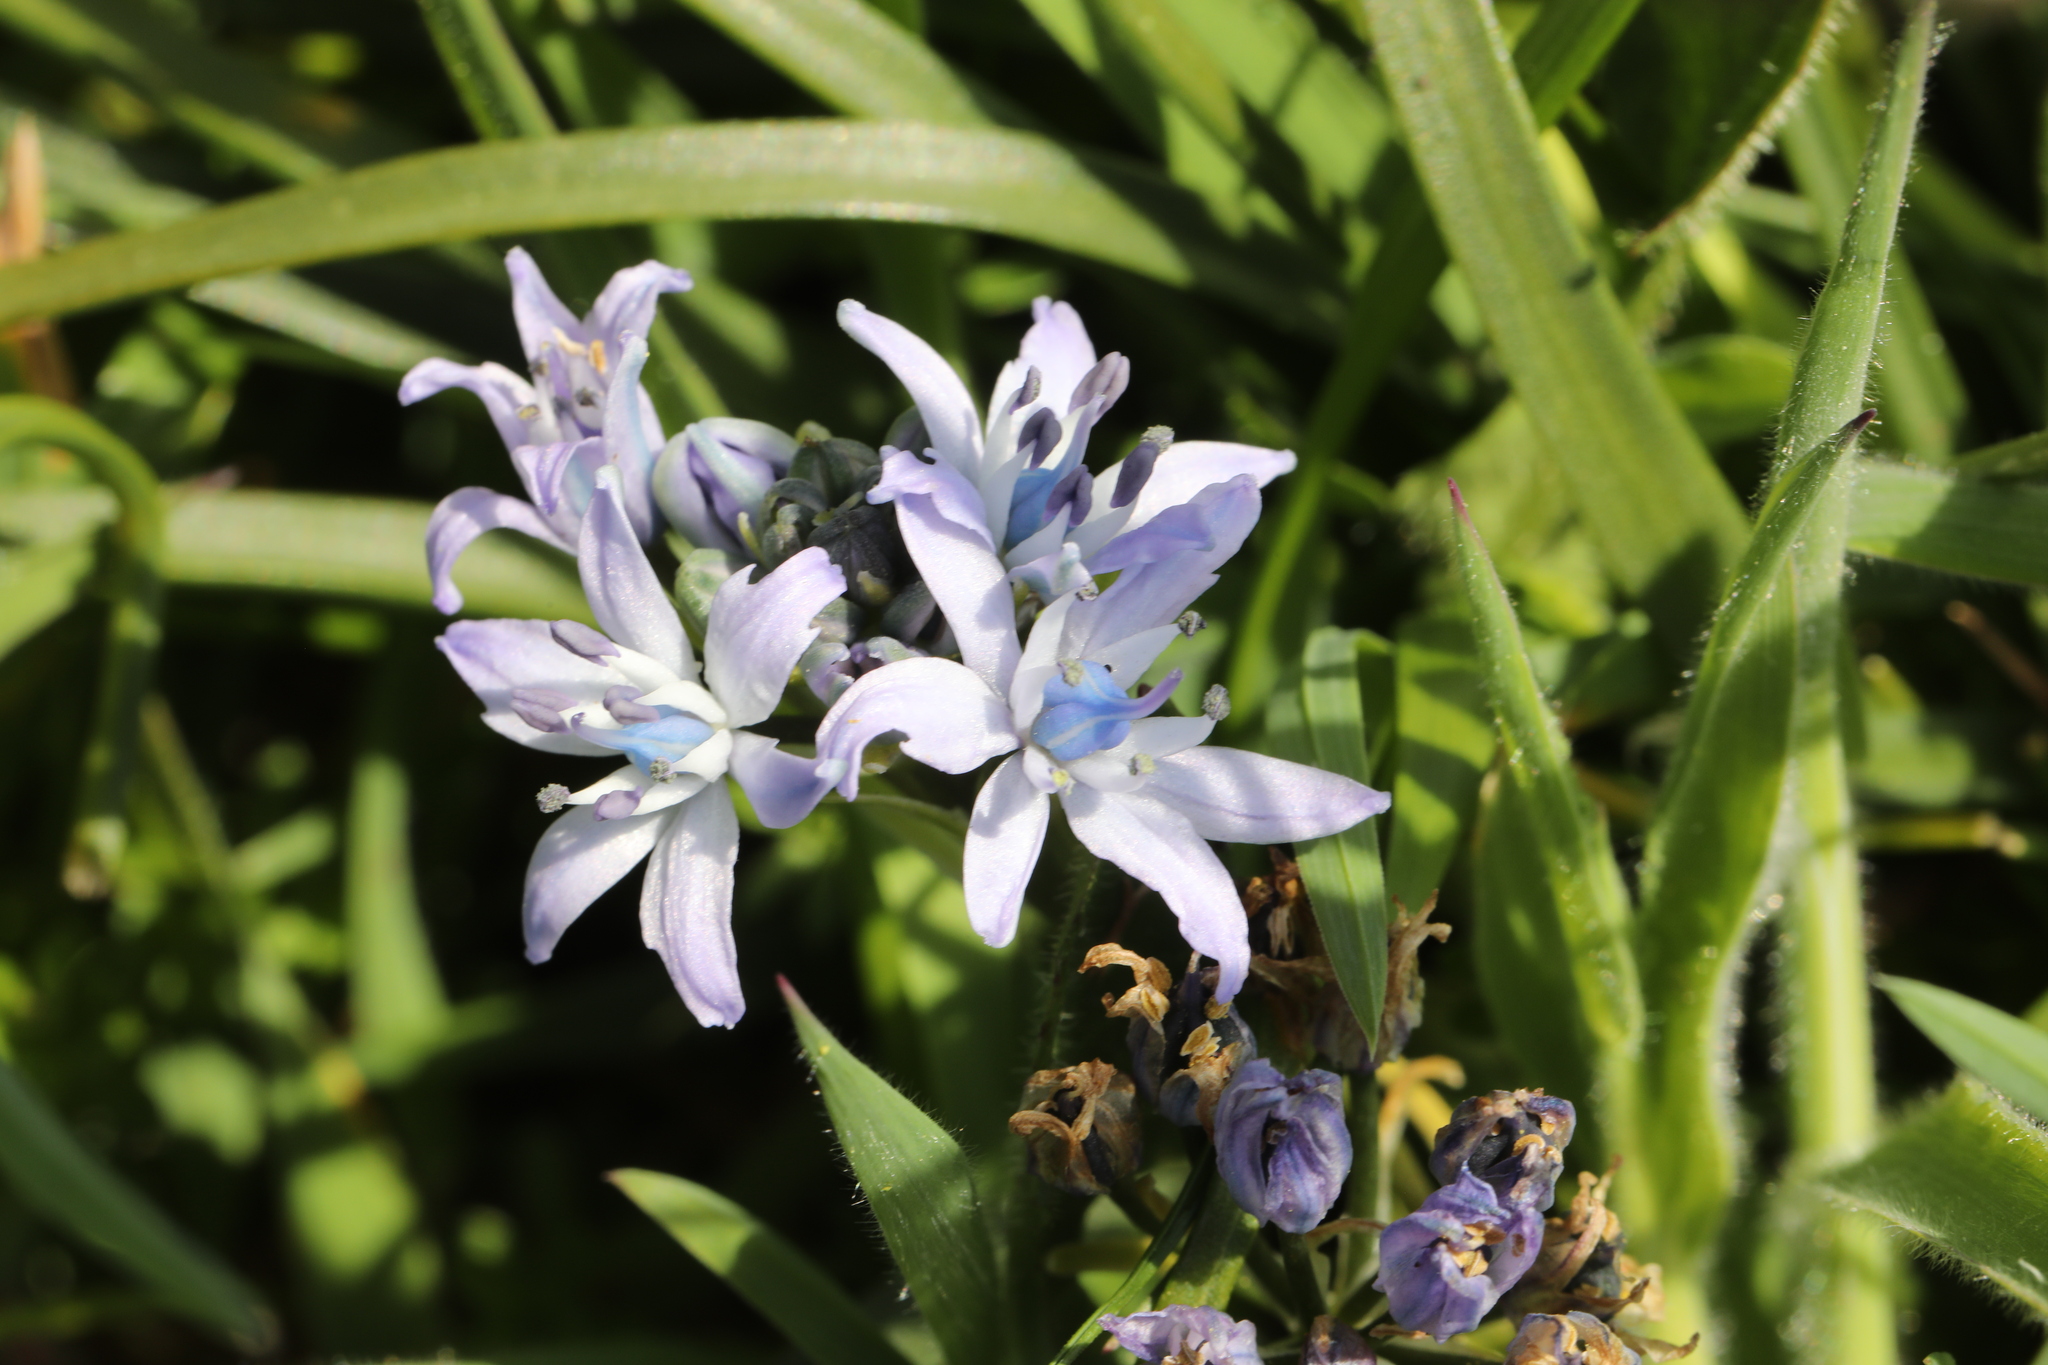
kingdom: Plantae
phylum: Tracheophyta
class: Liliopsida
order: Asparagales
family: Asparagaceae
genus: Scilla
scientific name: Scilla verna
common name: Spring squill
